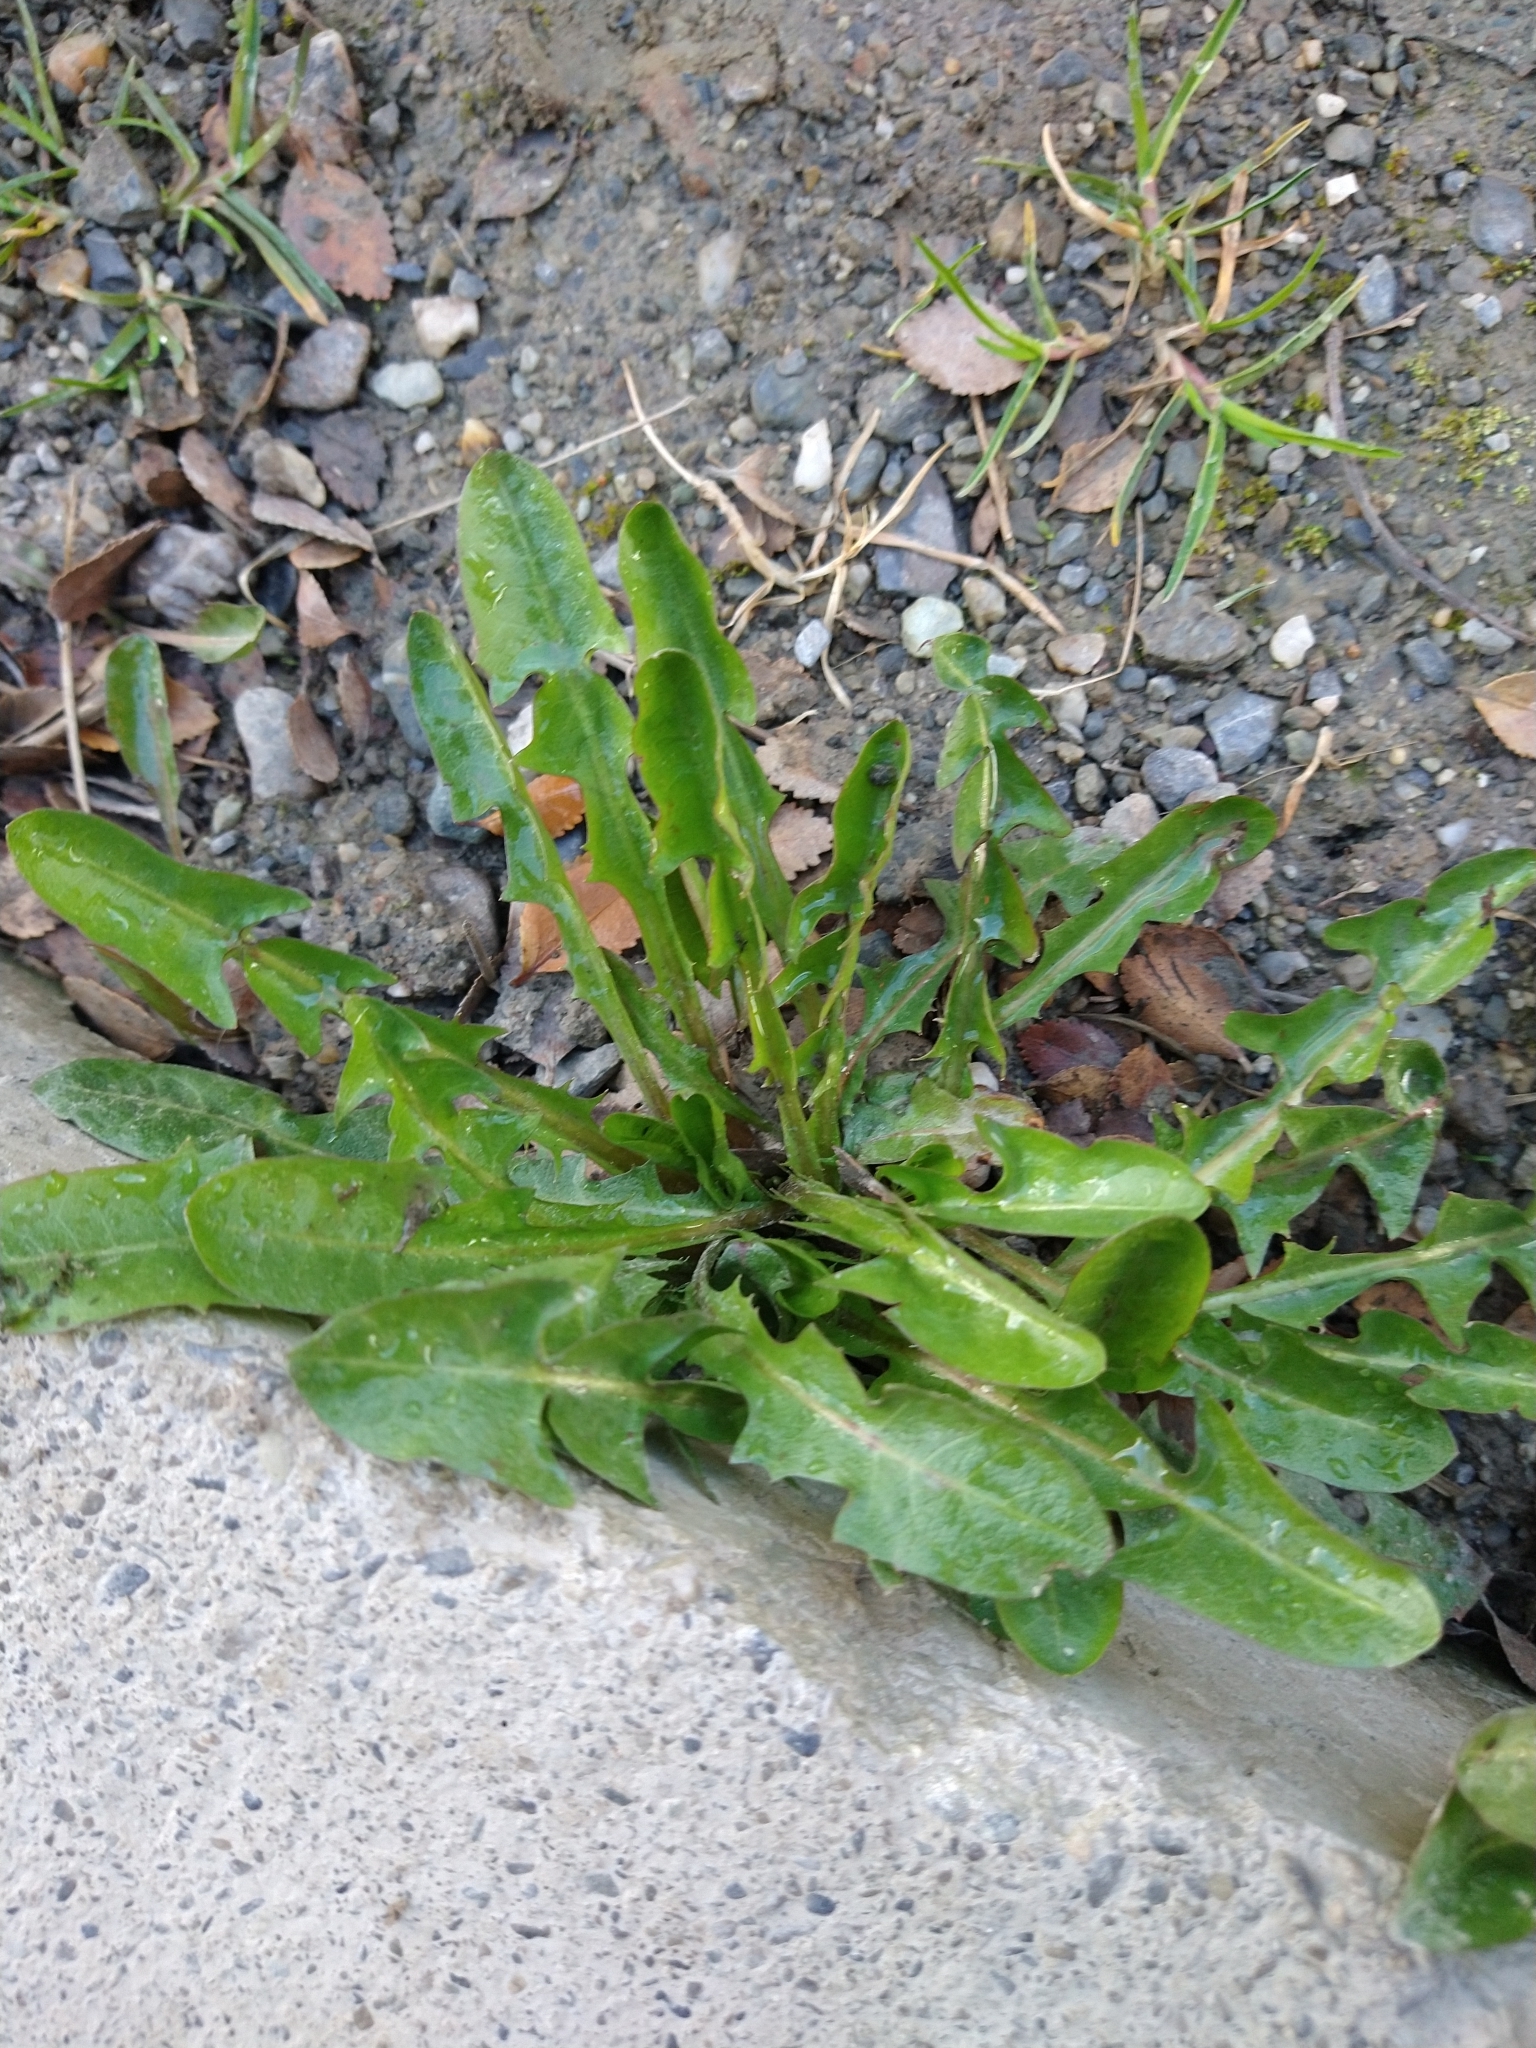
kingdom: Plantae
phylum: Tracheophyta
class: Magnoliopsida
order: Asterales
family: Asteraceae
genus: Taraxacum
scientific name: Taraxacum officinale
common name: Common dandelion
